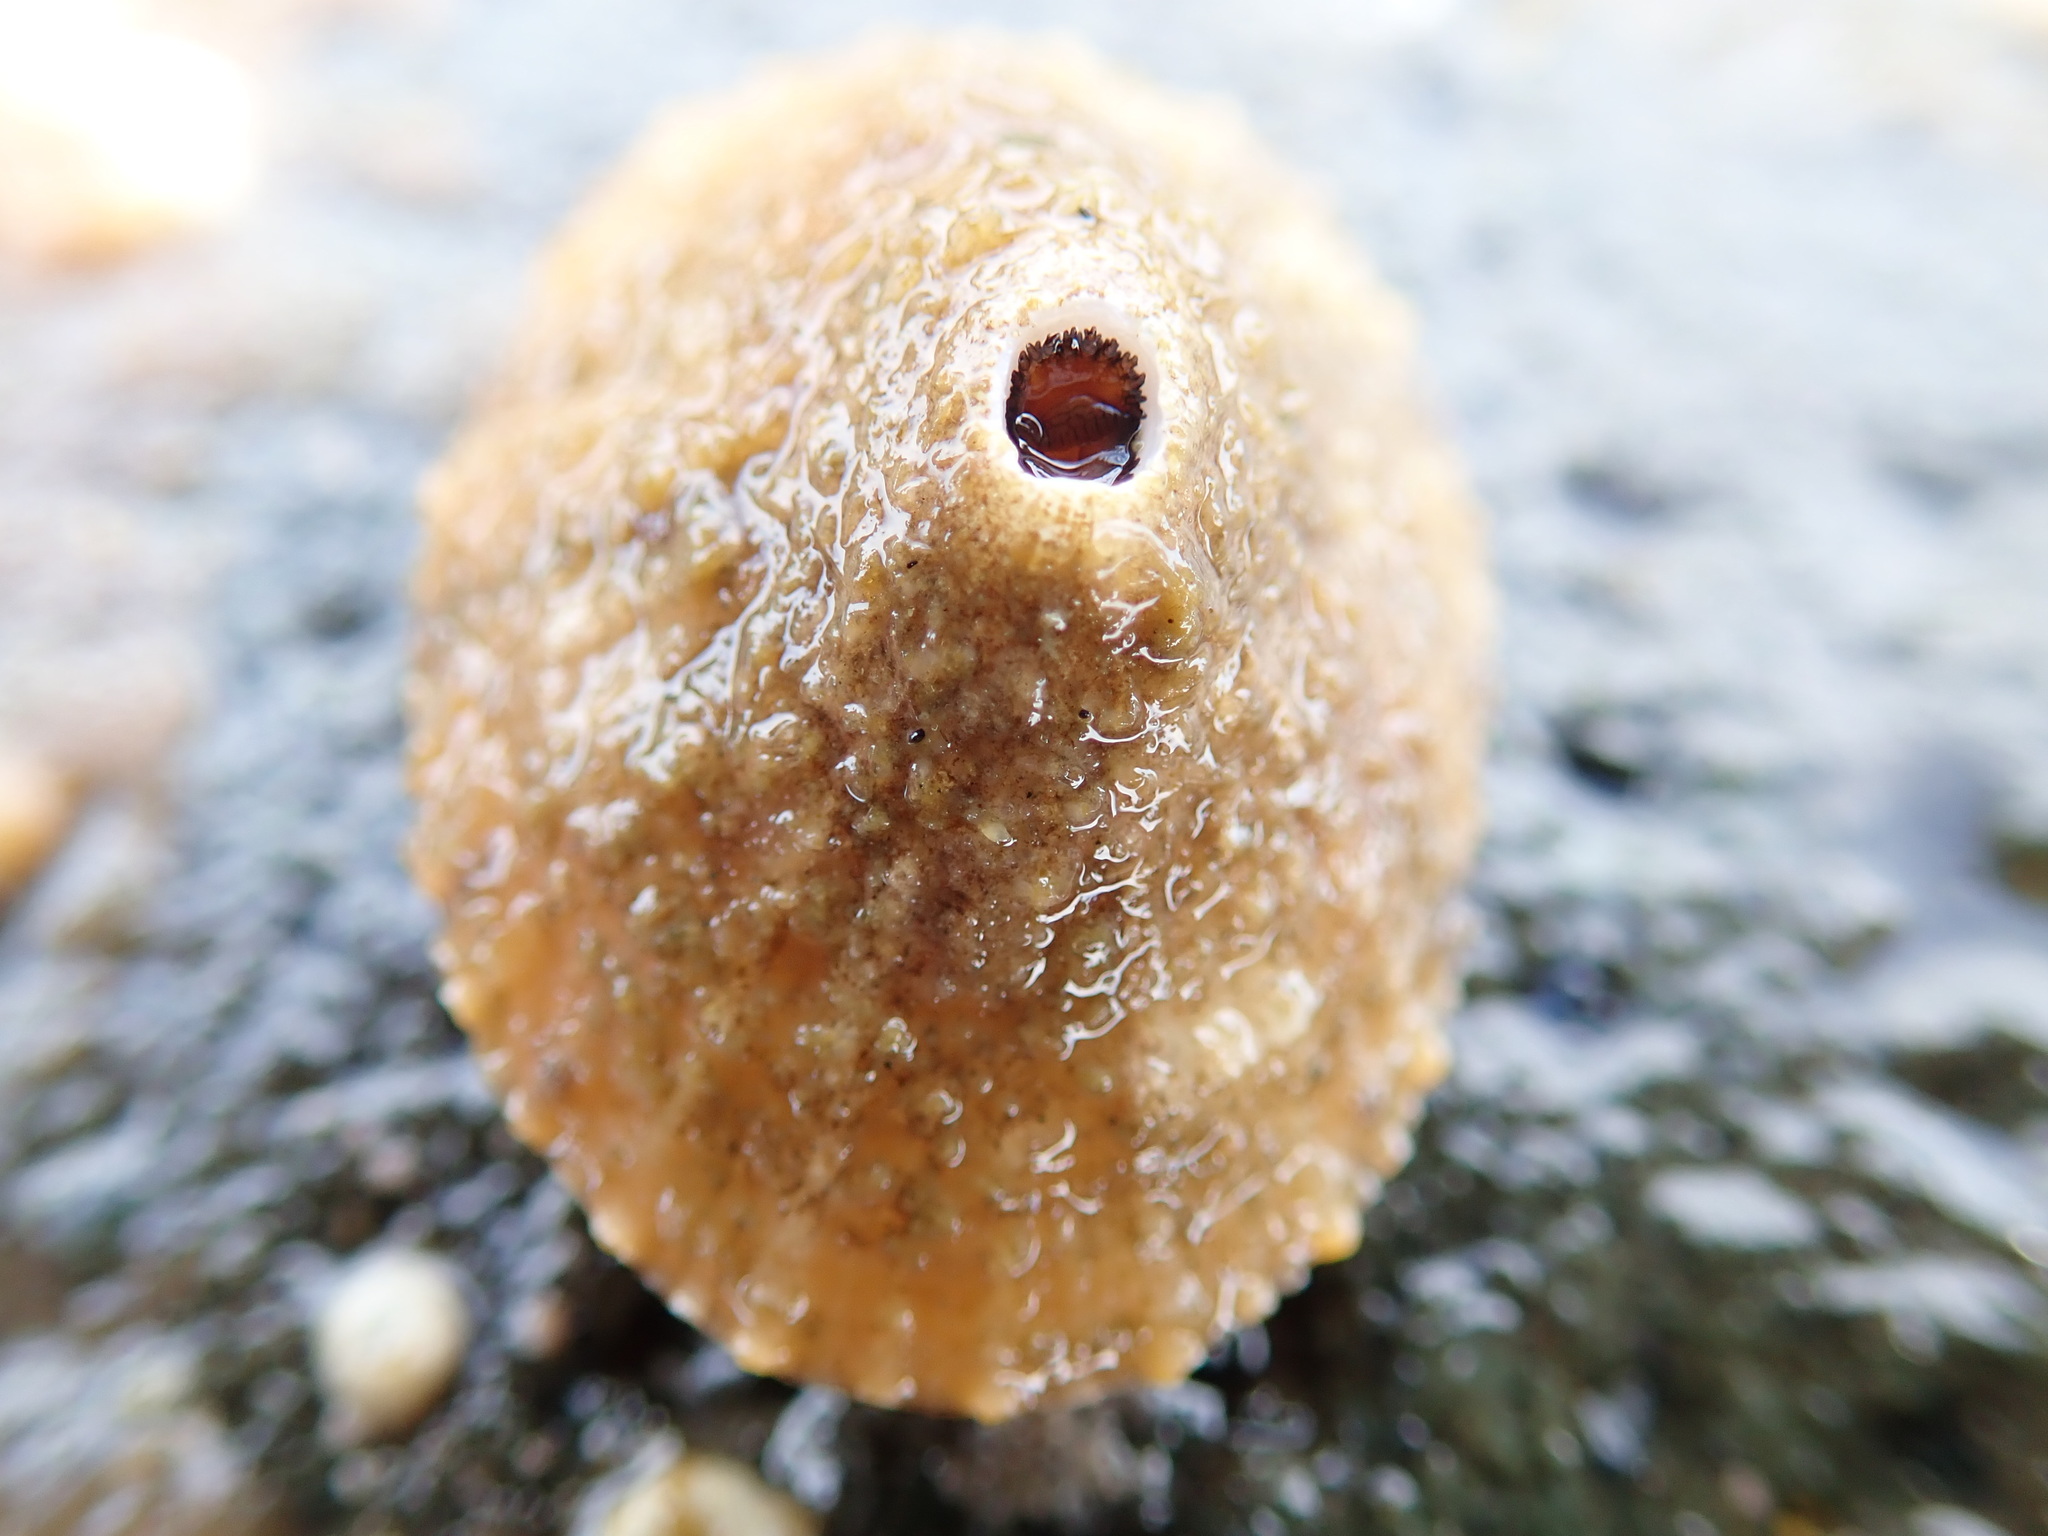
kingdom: Animalia
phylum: Mollusca
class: Gastropoda
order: Lepetellida
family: Fissurellidae
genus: Diodora
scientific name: Diodora aspera
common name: Rough keyhole limpet
